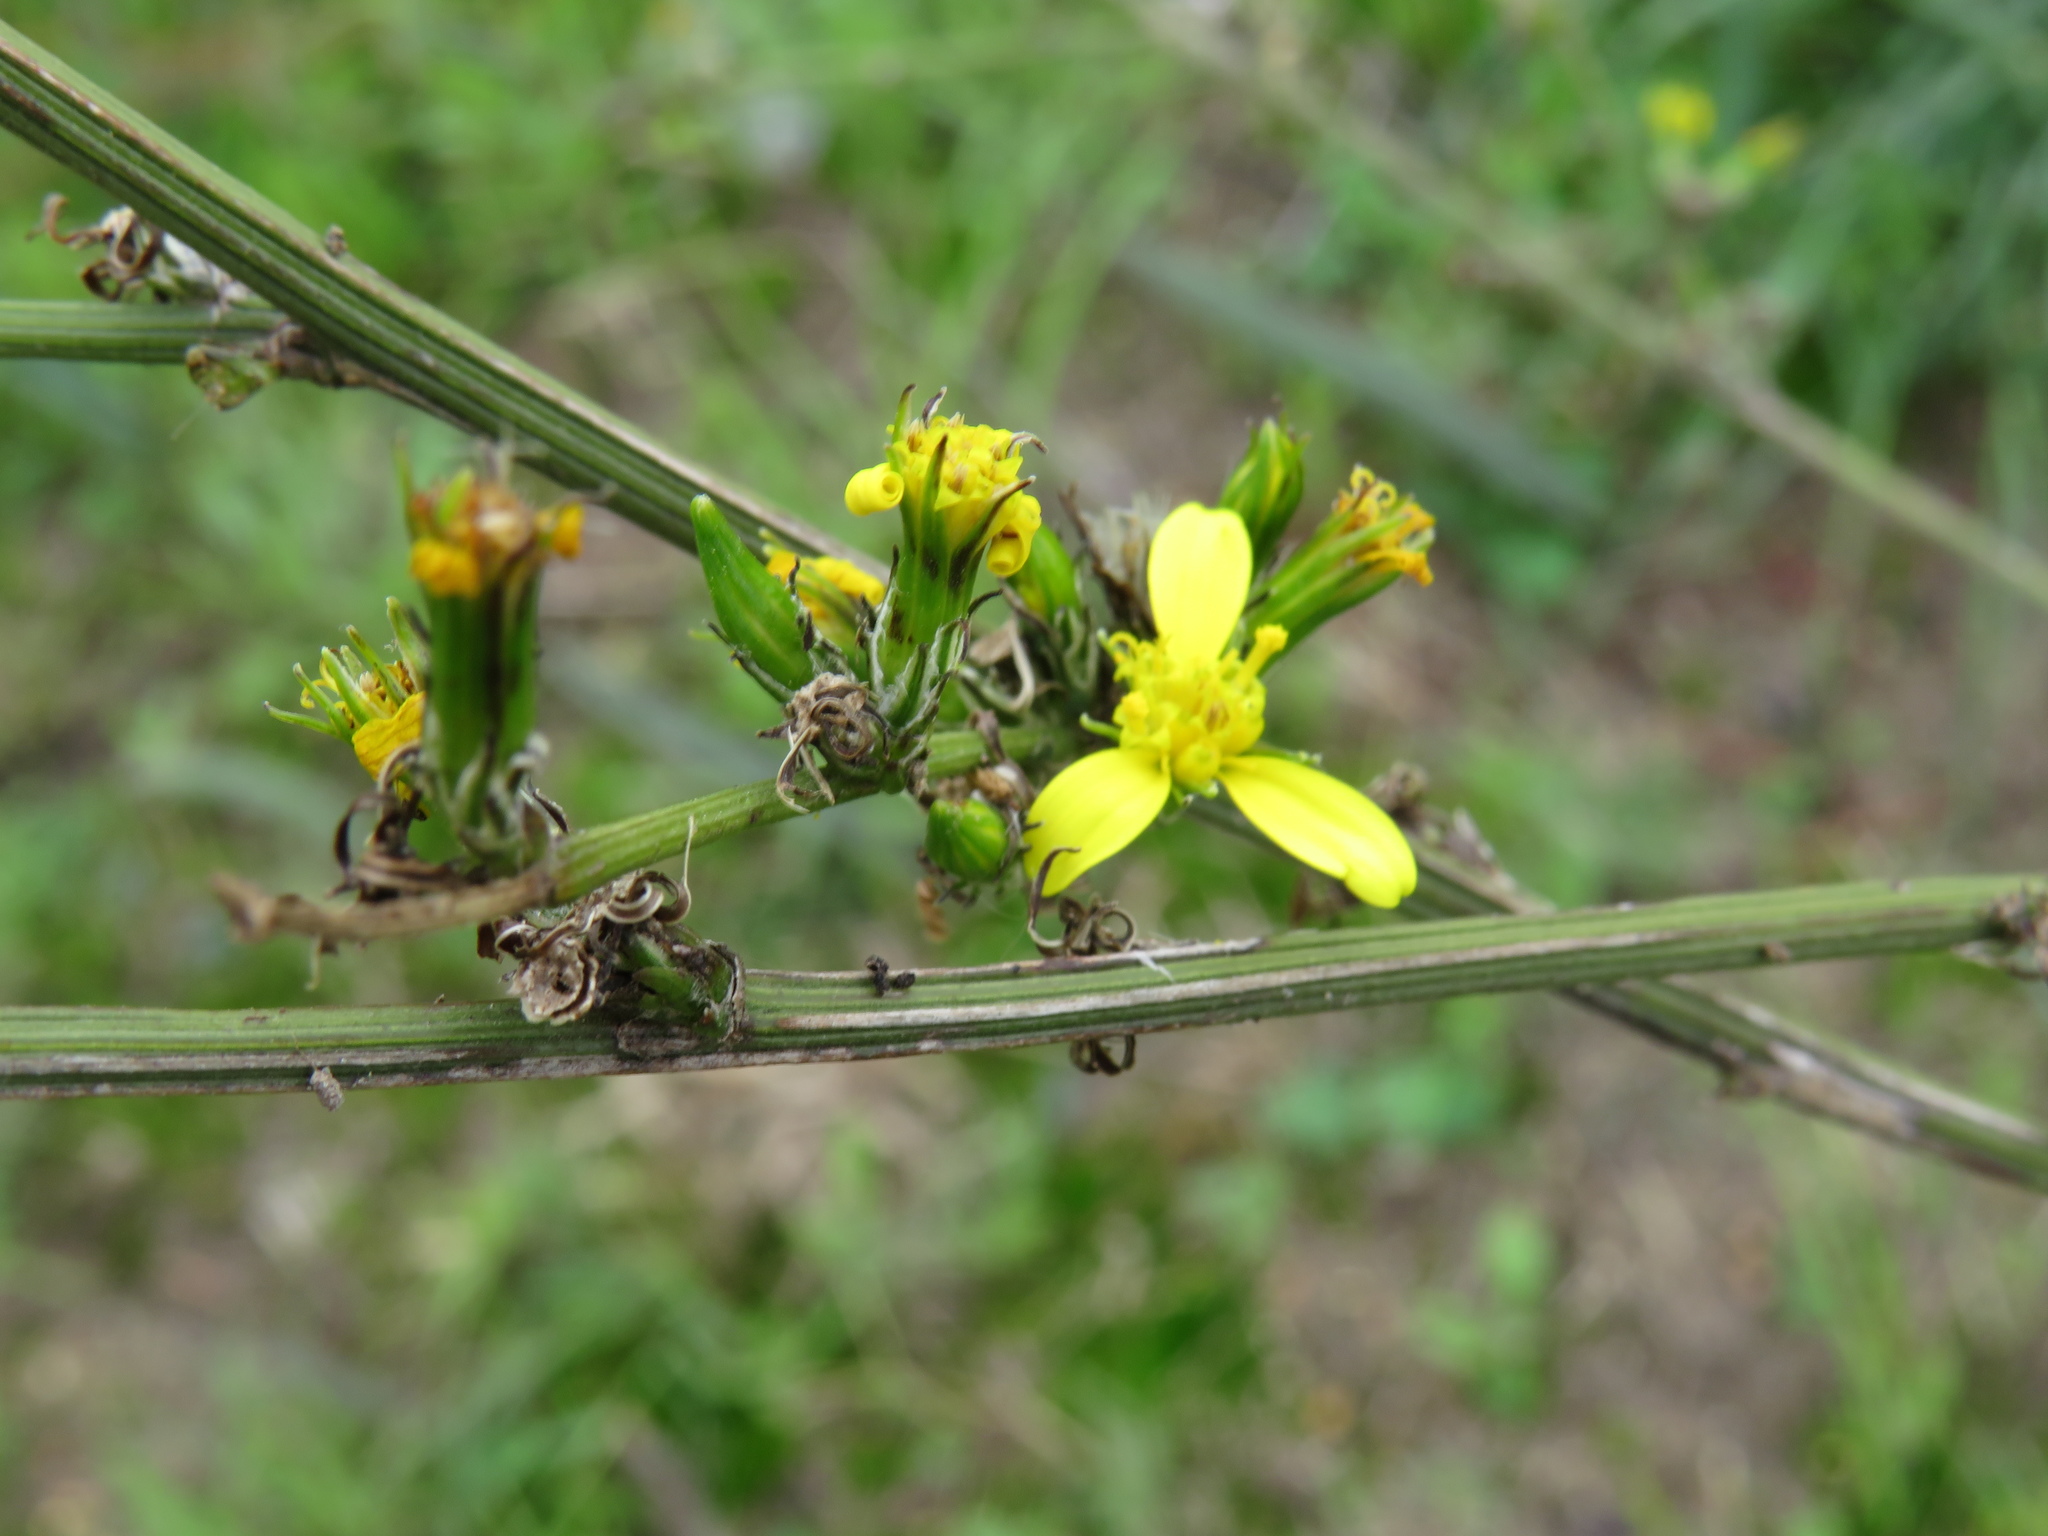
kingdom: Plantae
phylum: Tracheophyta
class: Magnoliopsida
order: Asterales
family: Asteraceae
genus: Senecio
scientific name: Senecio pubigerus
